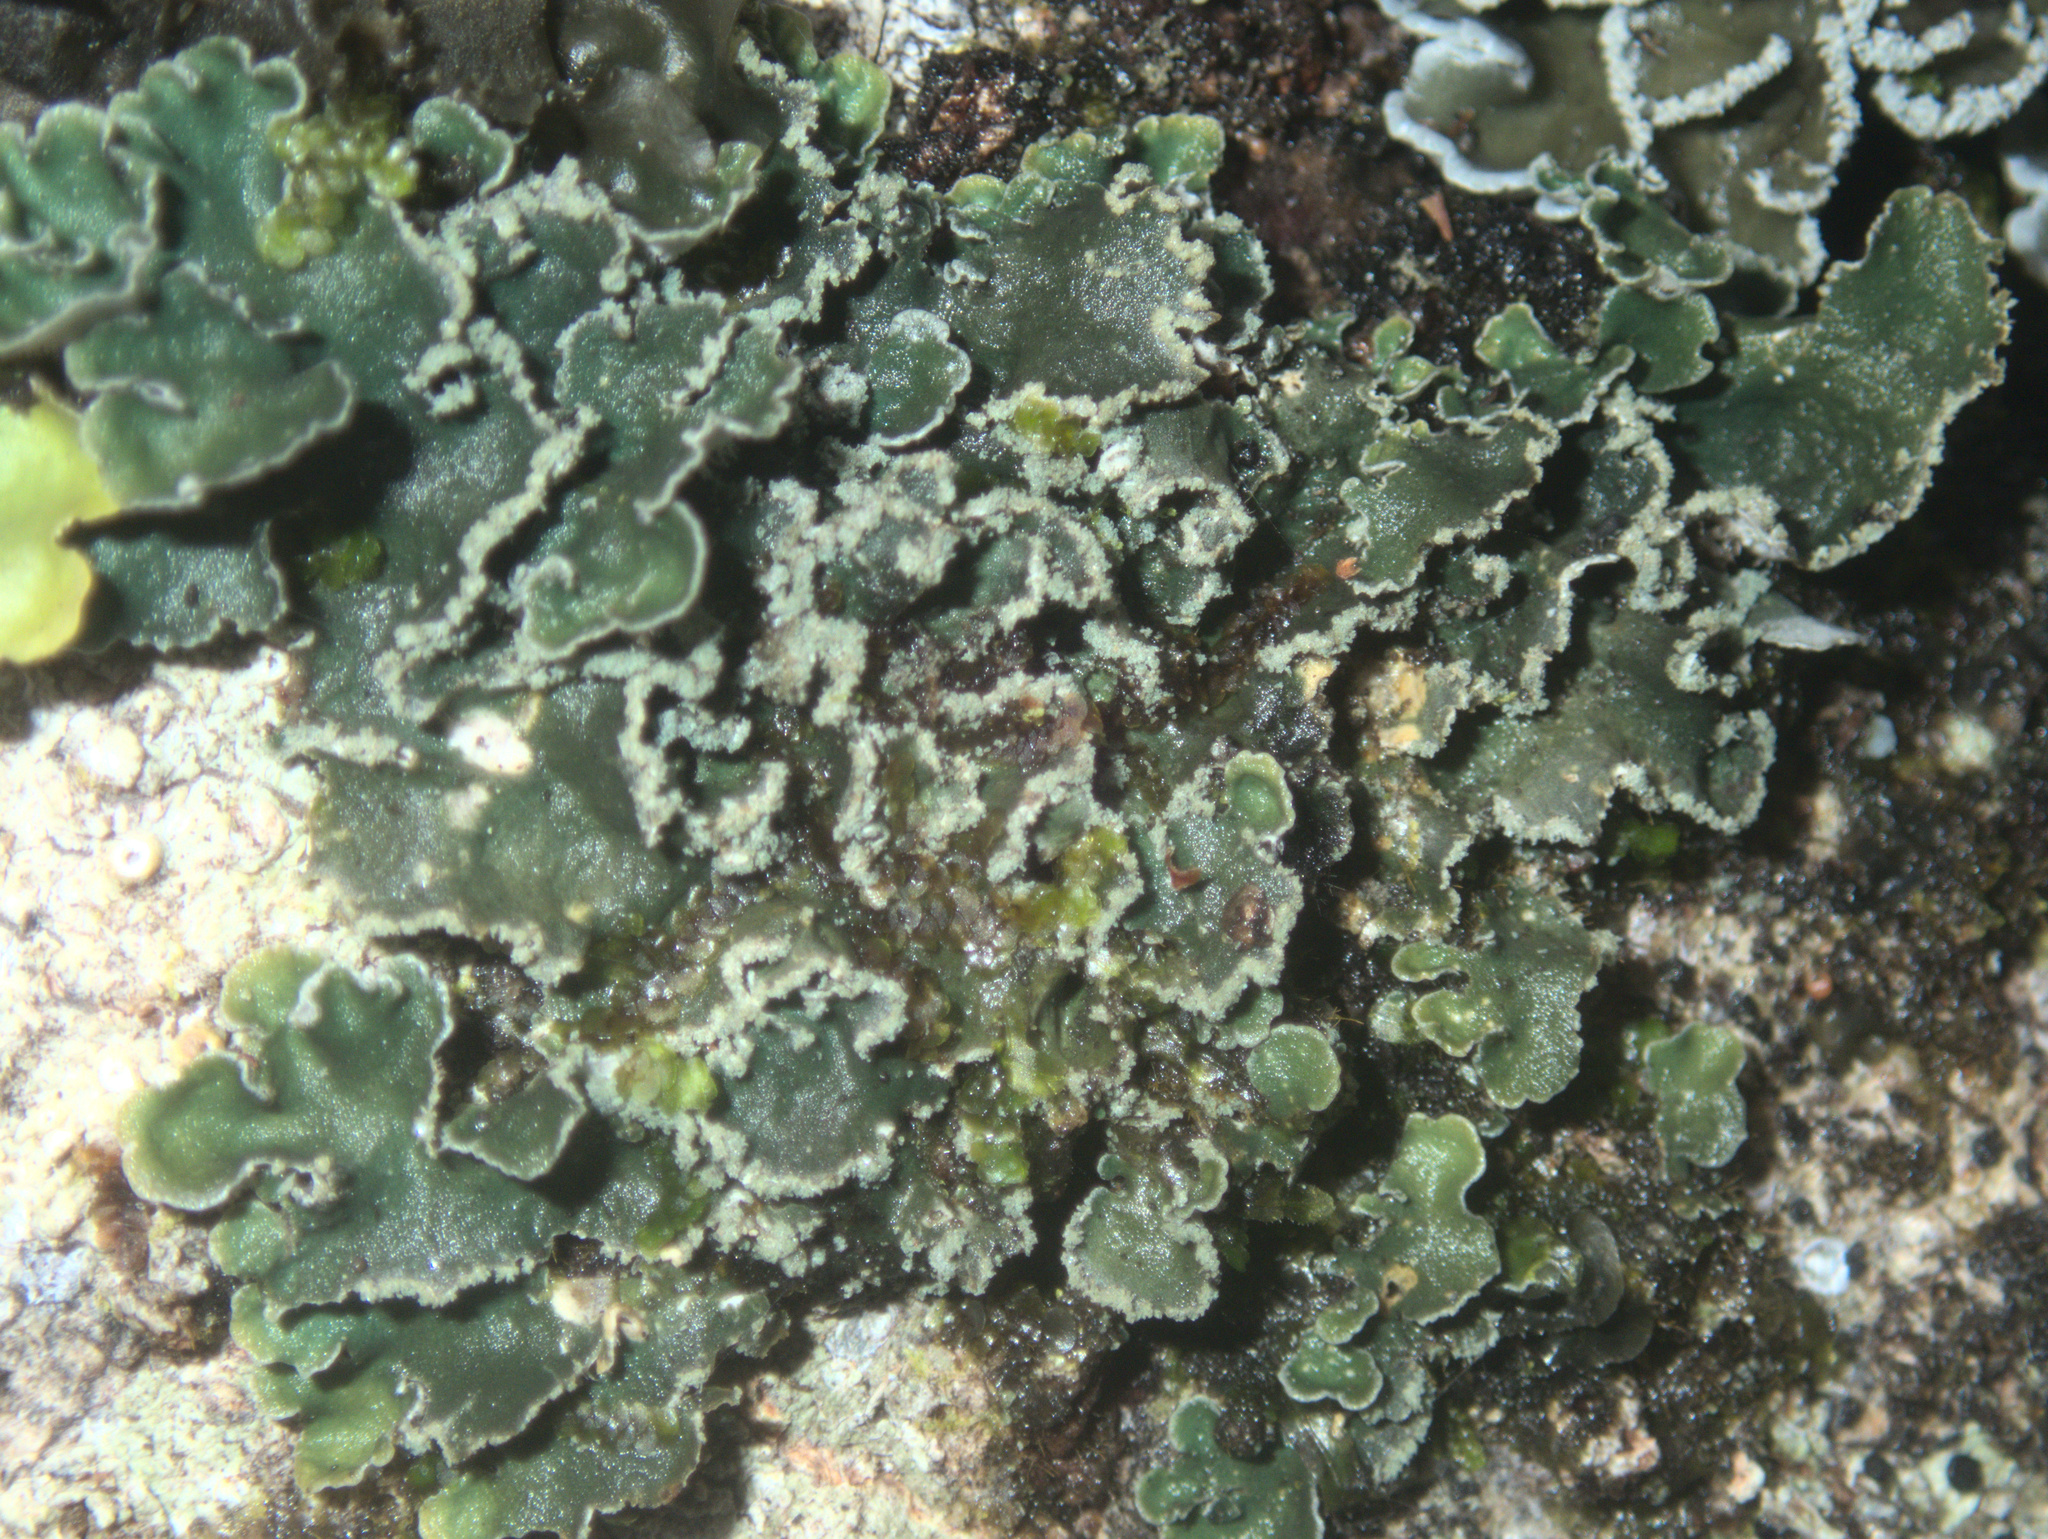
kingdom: Fungi
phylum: Ascomycota
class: Lecanoromycetes
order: Peltigerales
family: Pannariaceae
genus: Erioderma
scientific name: Erioderma sorediatum
